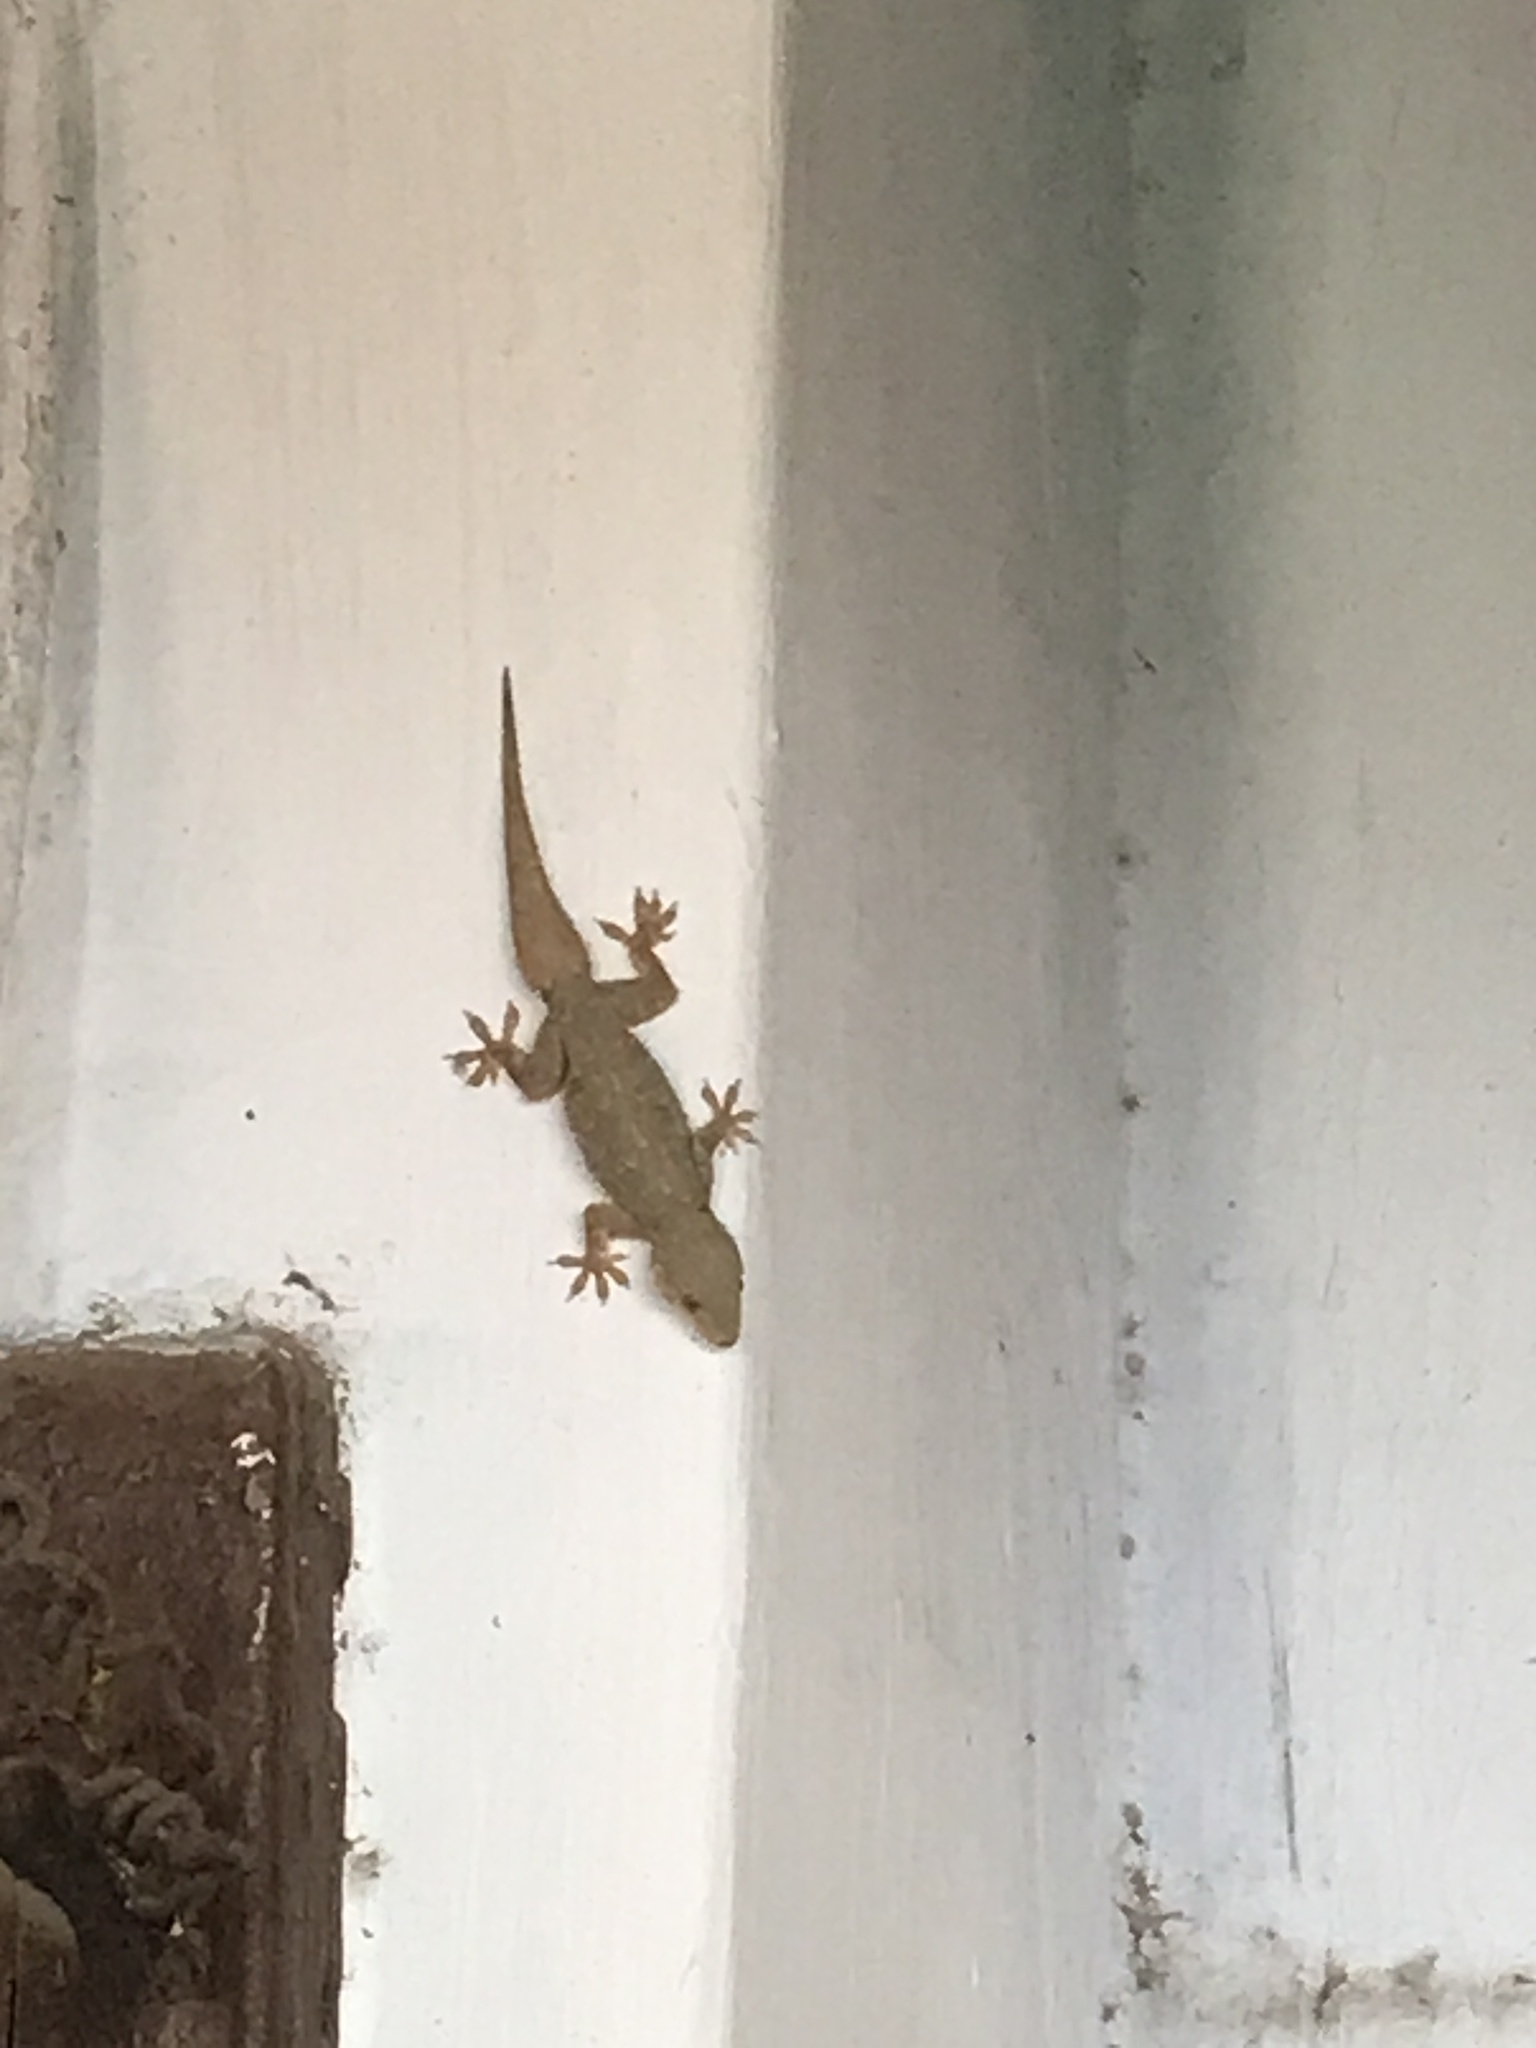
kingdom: Animalia
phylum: Chordata
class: Squamata
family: Gekkonidae
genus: Hemidactylus
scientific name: Hemidactylus flaviviridis
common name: Northern house gecko
